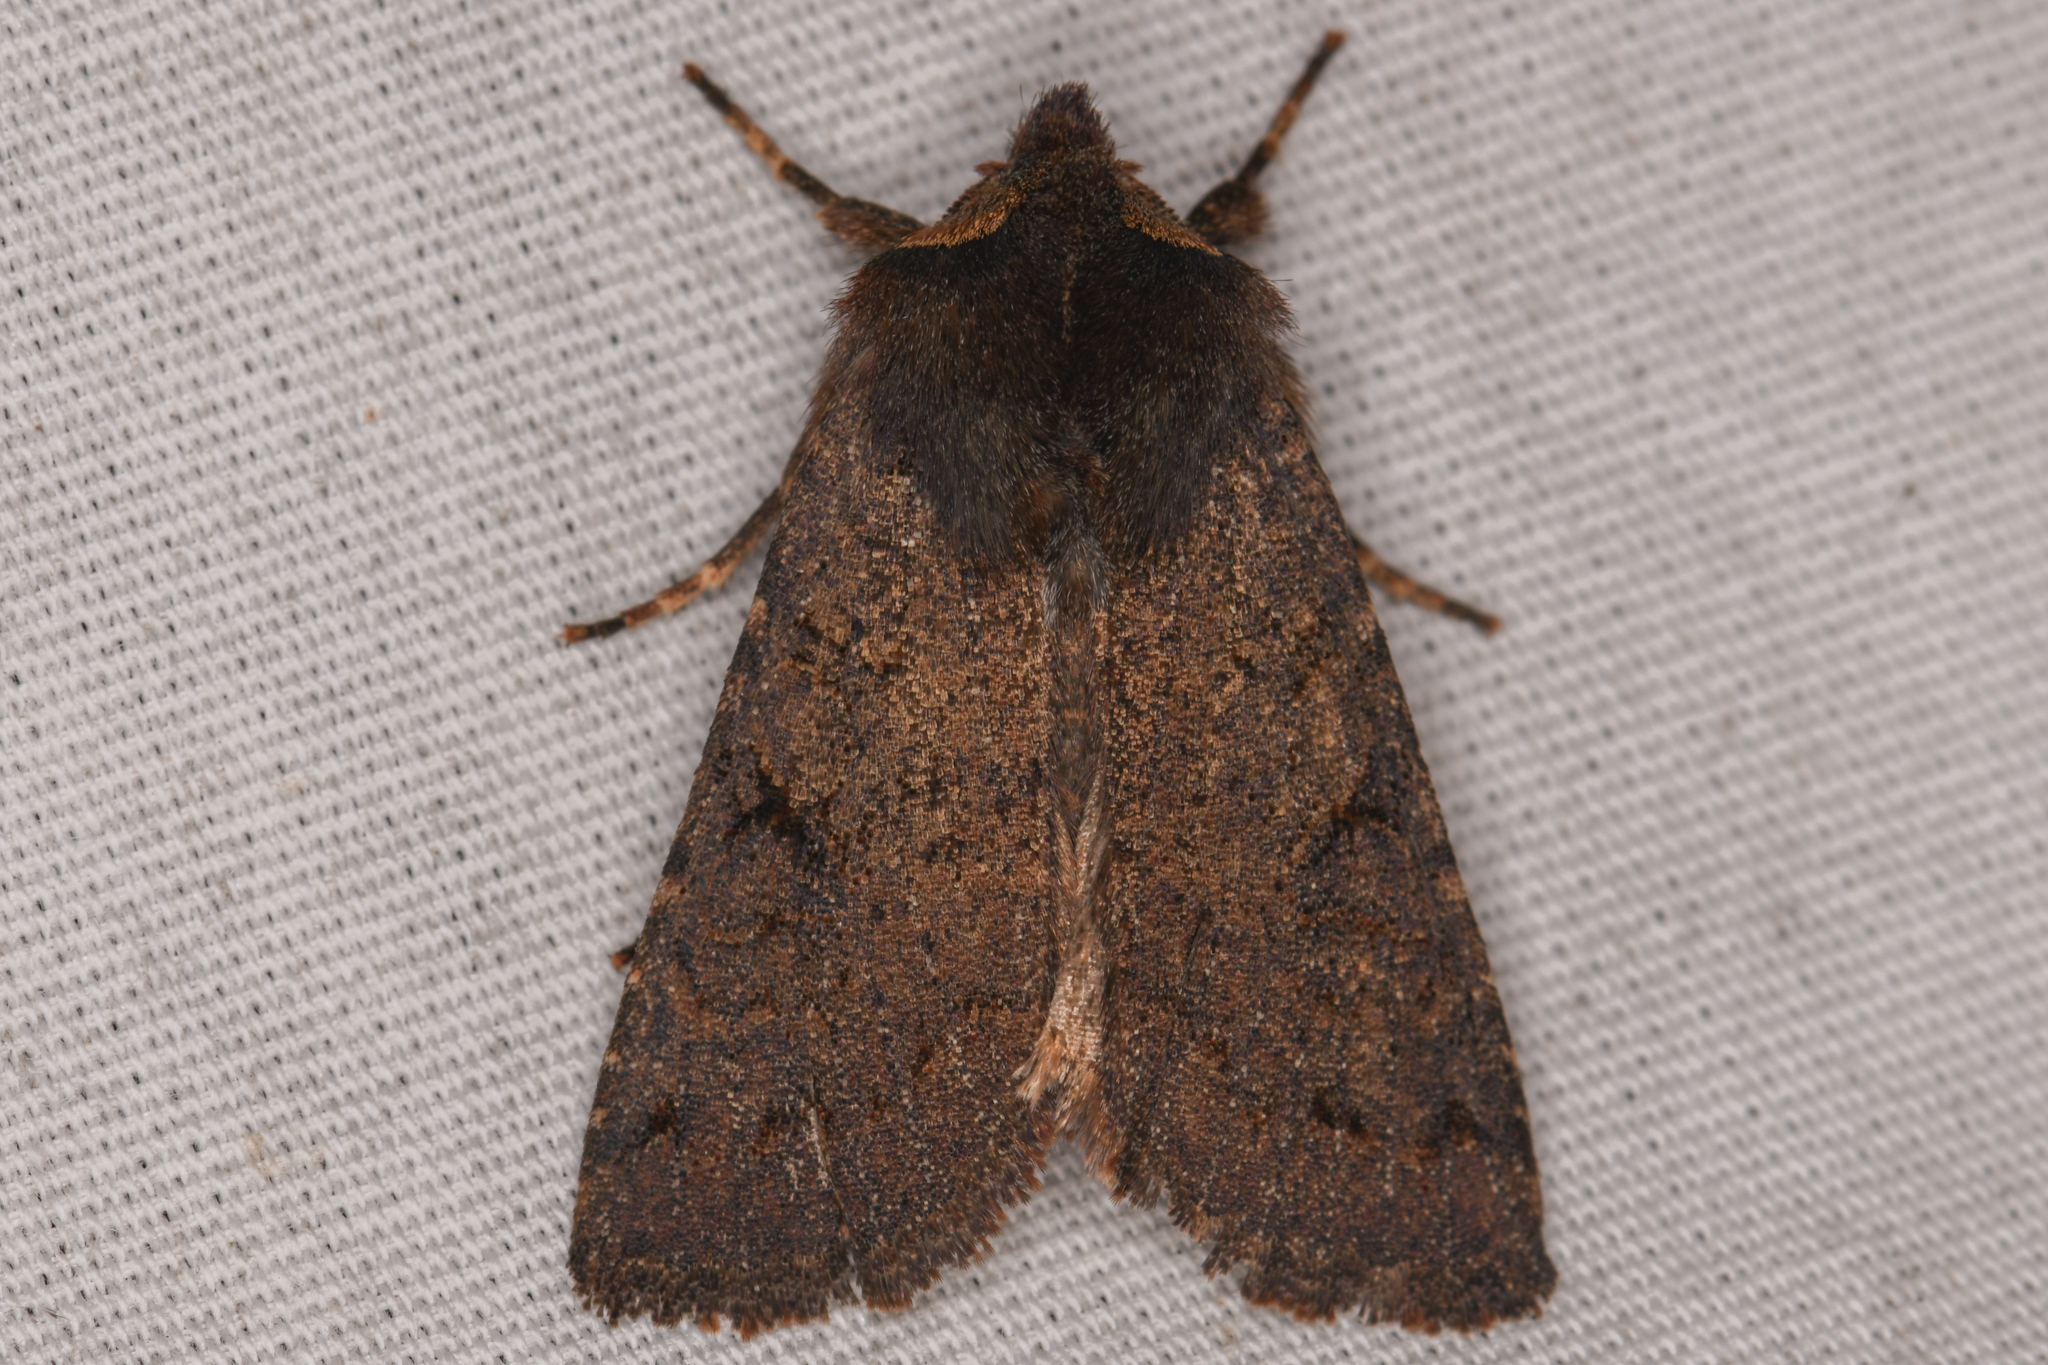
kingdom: Animalia
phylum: Arthropoda
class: Insecta
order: Lepidoptera
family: Noctuidae
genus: Orthosia
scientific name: Orthosia praeses
